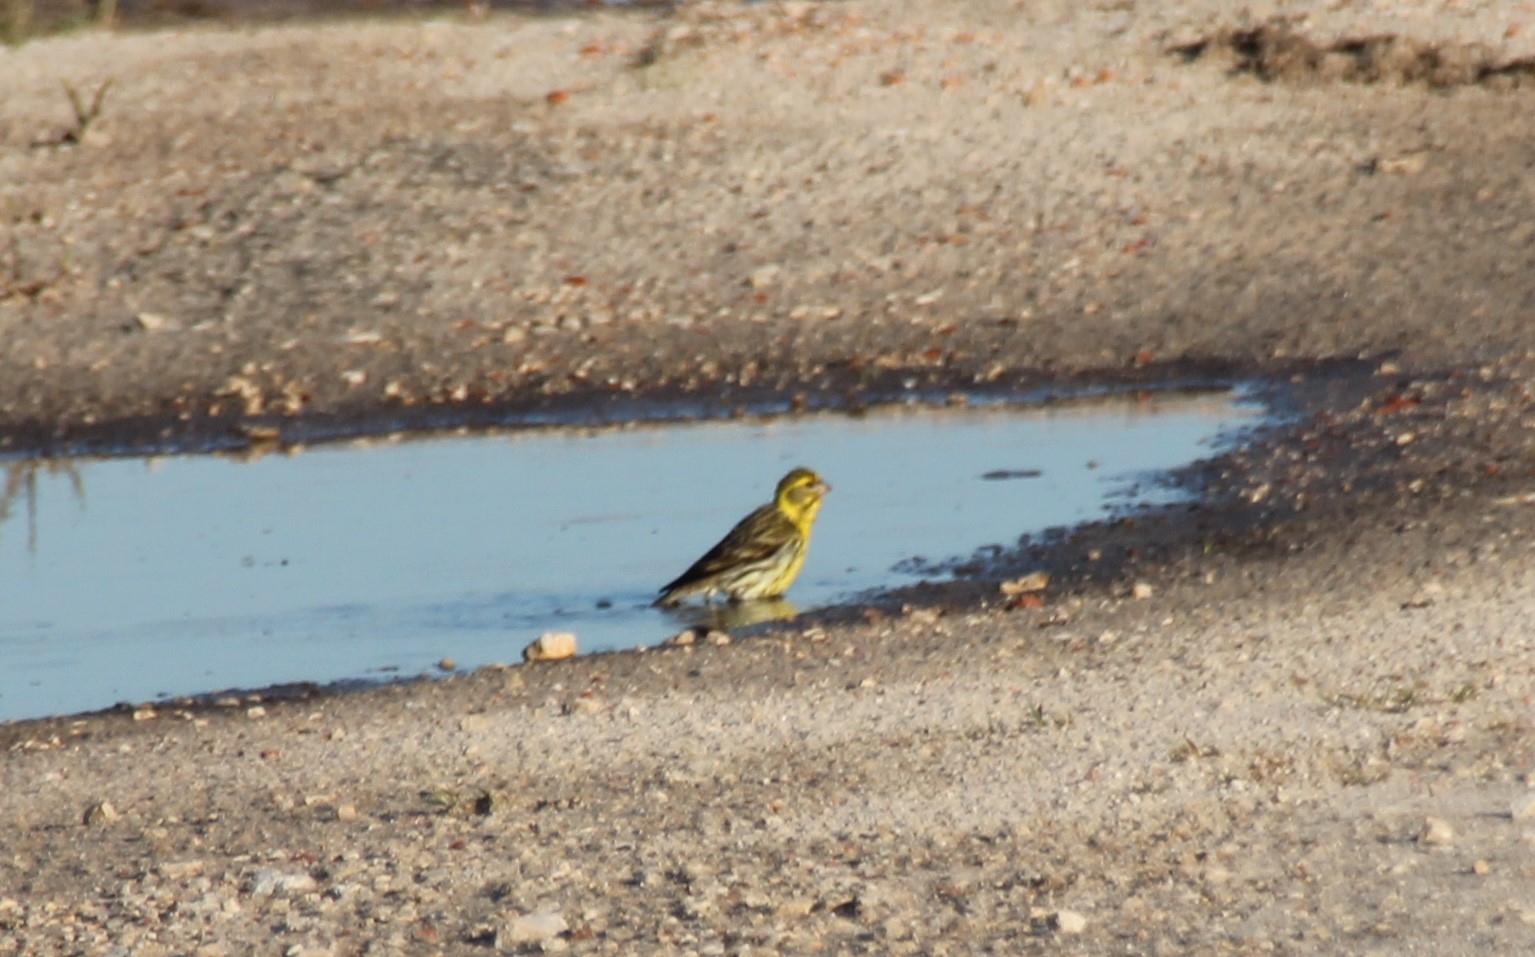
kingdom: Animalia
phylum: Chordata
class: Aves
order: Passeriformes
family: Fringillidae
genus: Serinus
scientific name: Serinus serinus
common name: European serin
